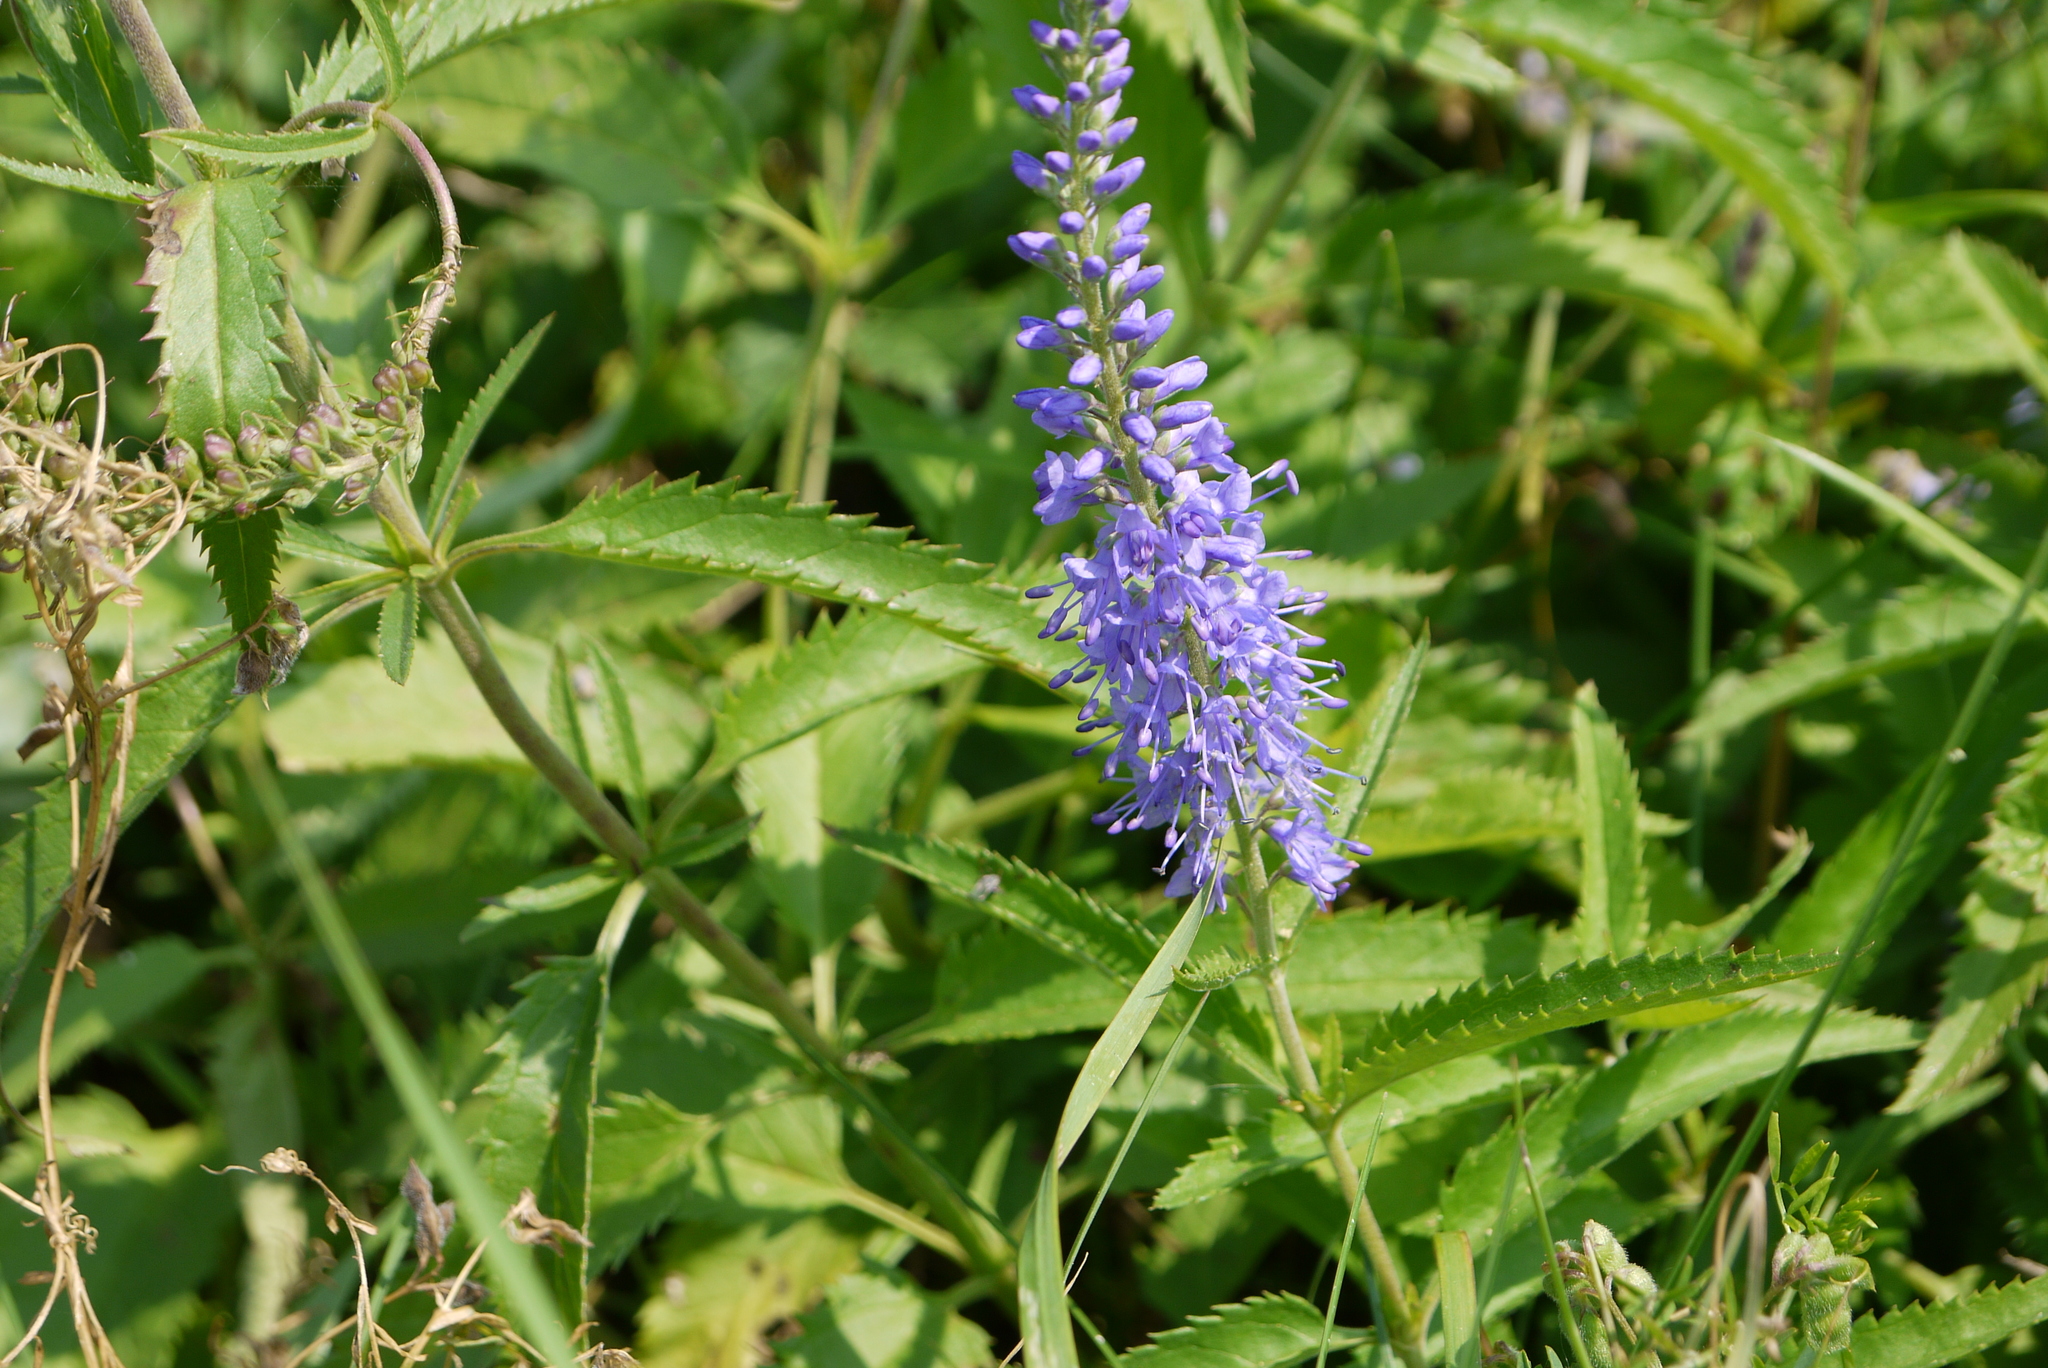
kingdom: Plantae
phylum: Tracheophyta
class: Magnoliopsida
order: Lamiales
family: Plantaginaceae
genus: Veronica
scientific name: Veronica longifolia
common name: Garden speedwell
